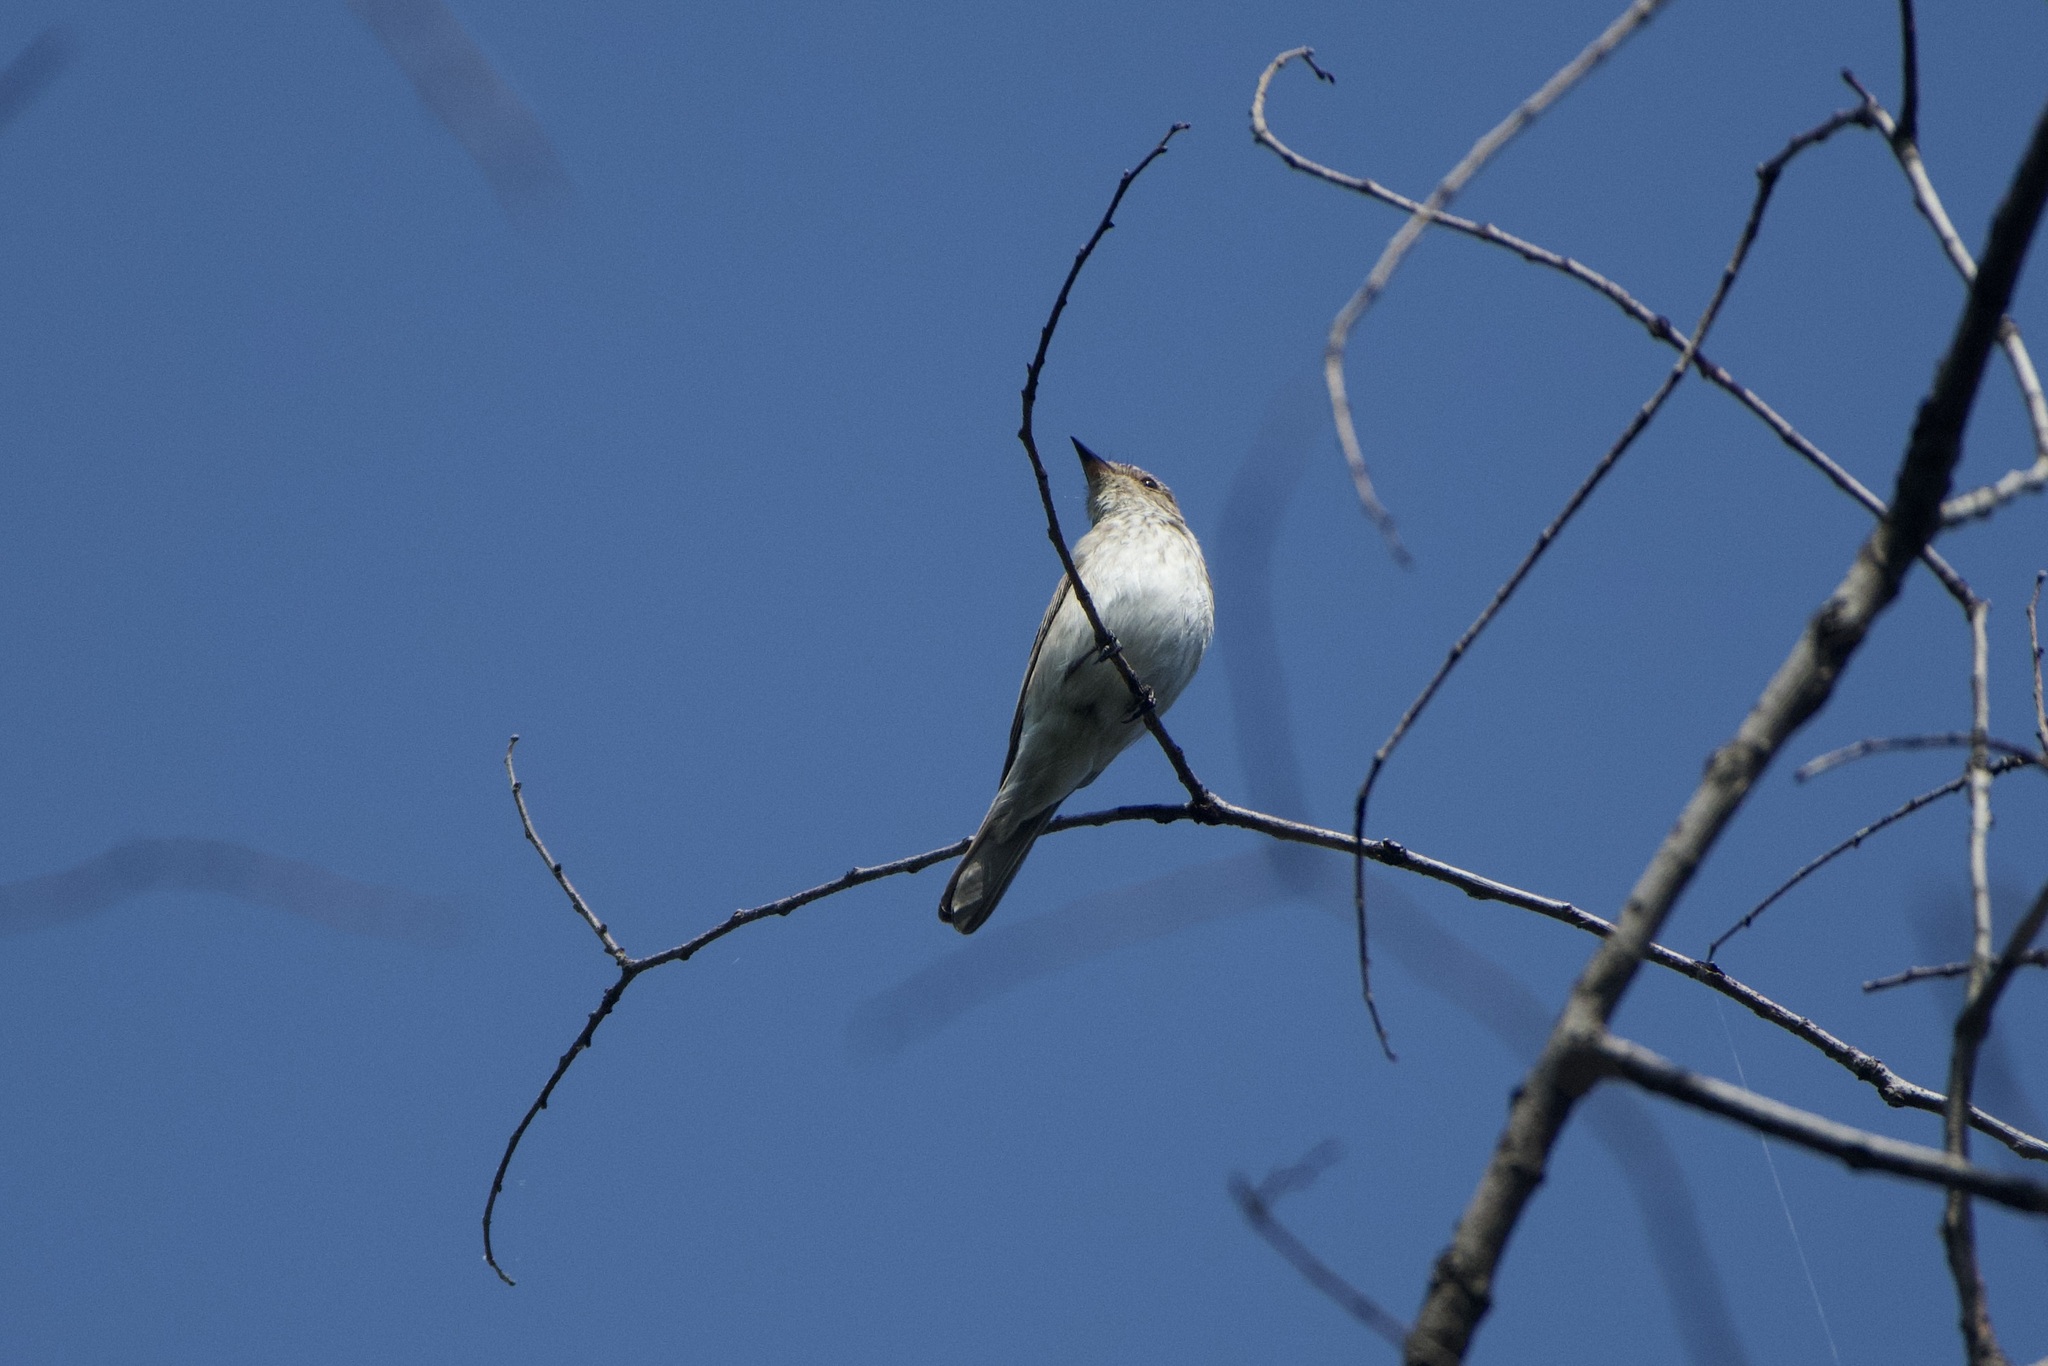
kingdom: Animalia
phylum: Chordata
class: Aves
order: Passeriformes
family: Muscicapidae
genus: Muscicapa
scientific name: Muscicapa striata
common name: Spotted flycatcher
